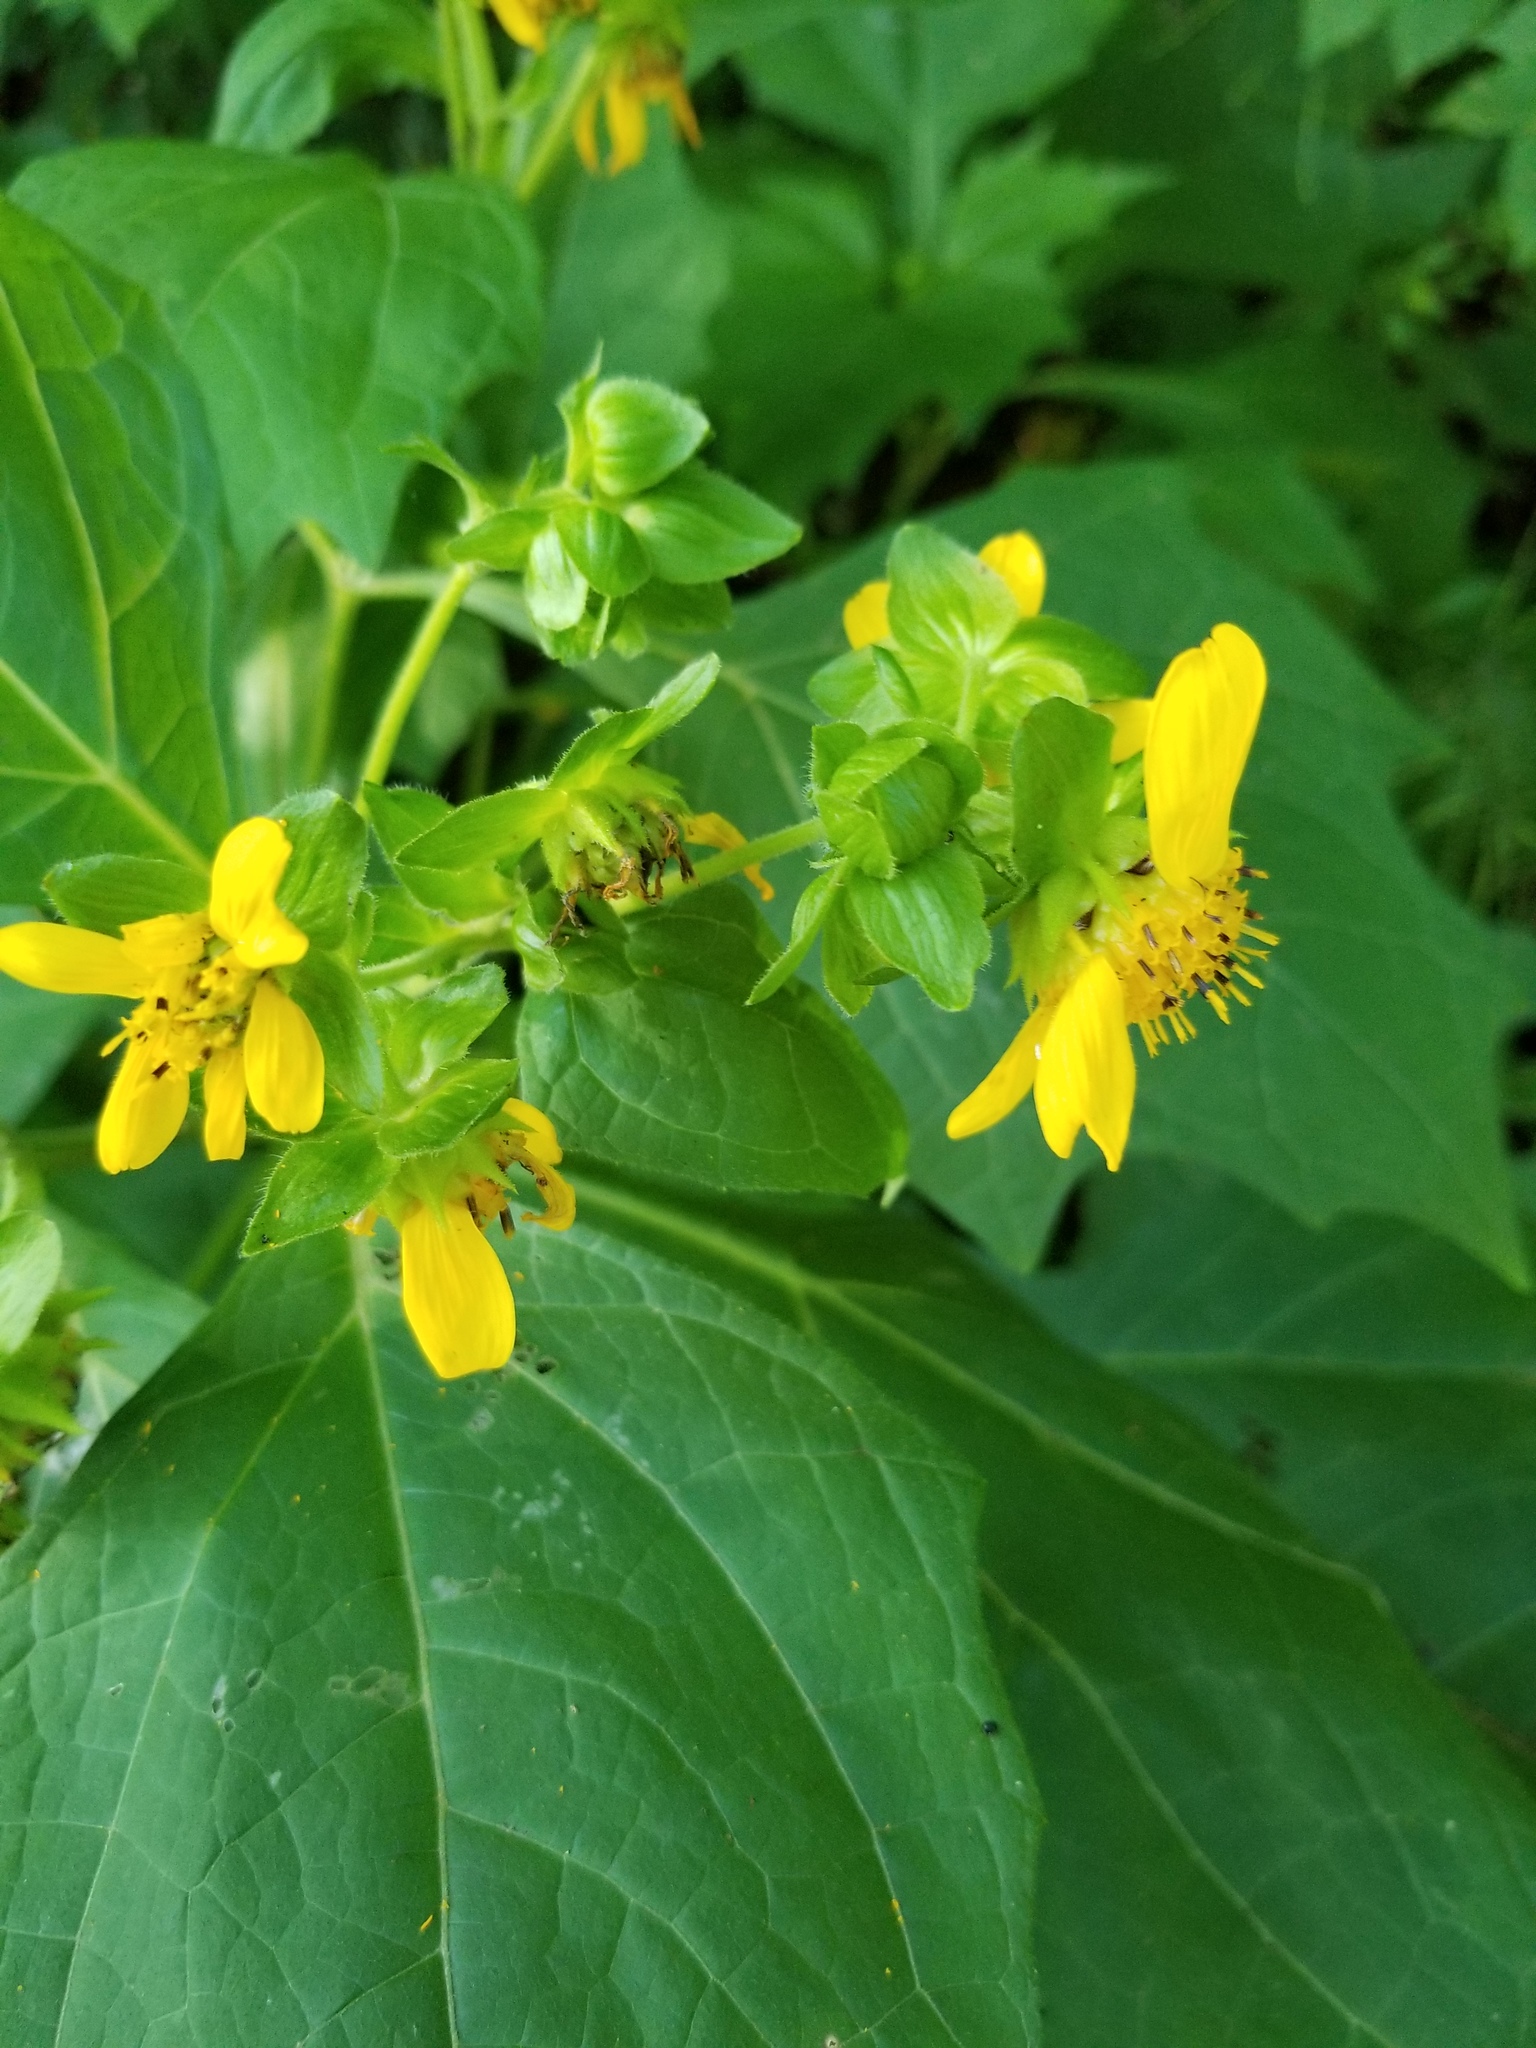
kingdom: Plantae
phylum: Tracheophyta
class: Magnoliopsida
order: Asterales
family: Asteraceae
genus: Smallanthus
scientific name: Smallanthus uvedalia
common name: Bear's-foot
